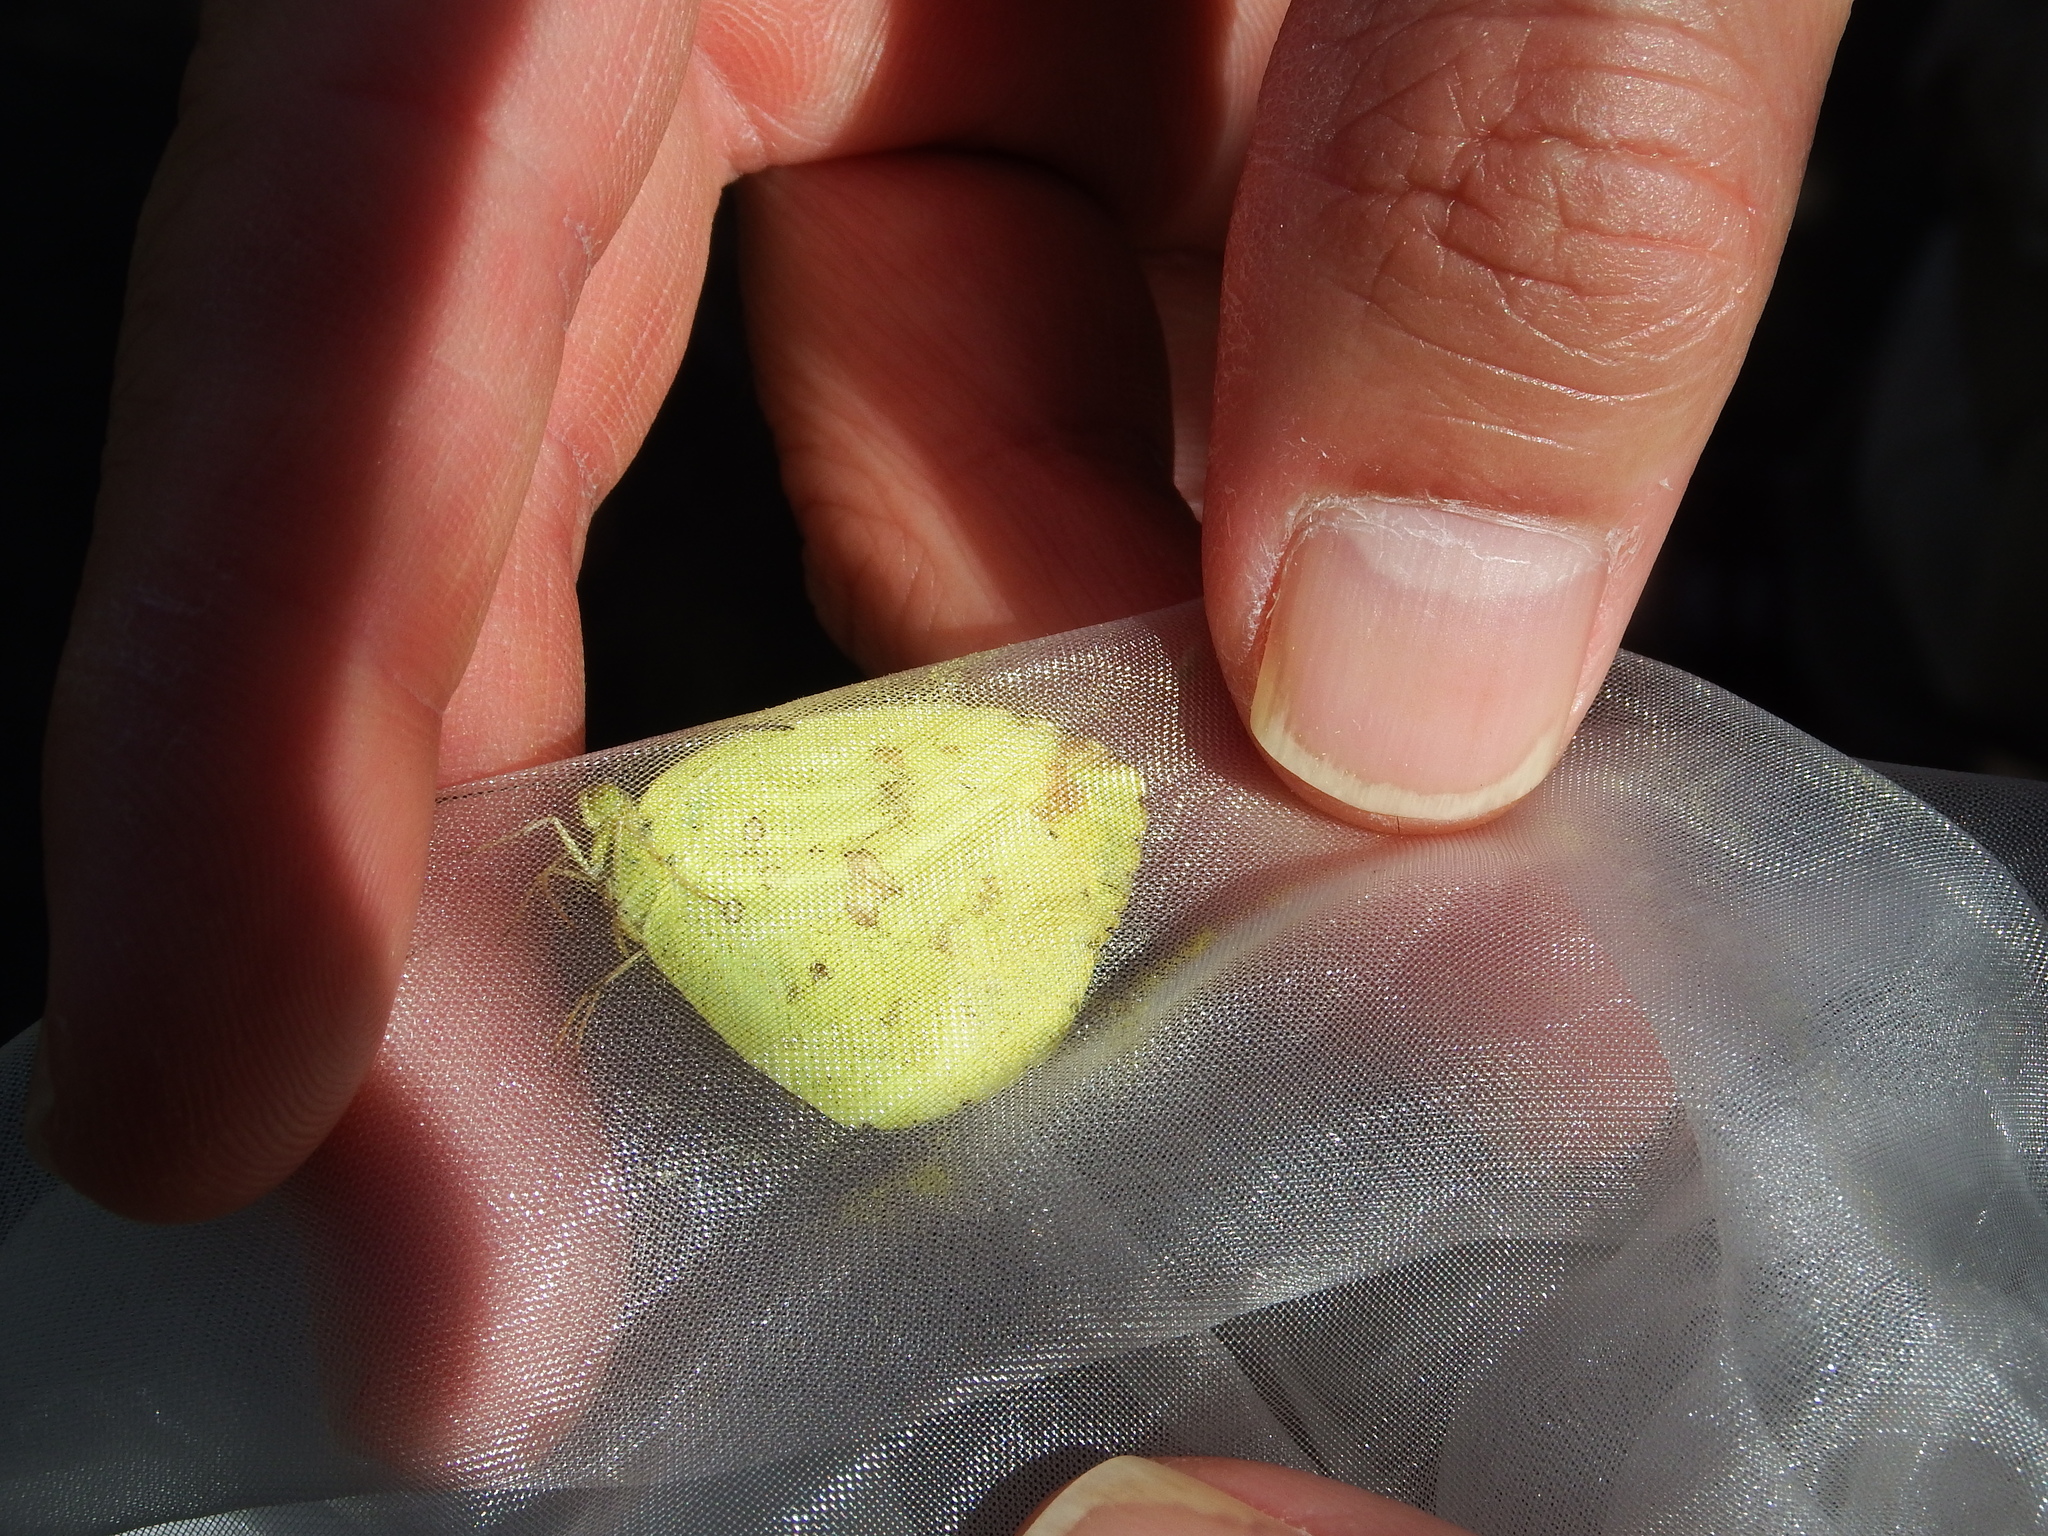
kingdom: Animalia
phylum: Arthropoda
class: Insecta
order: Lepidoptera
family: Pieridae
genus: Eurema
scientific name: Eurema hecabe
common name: Pale grass yellow
